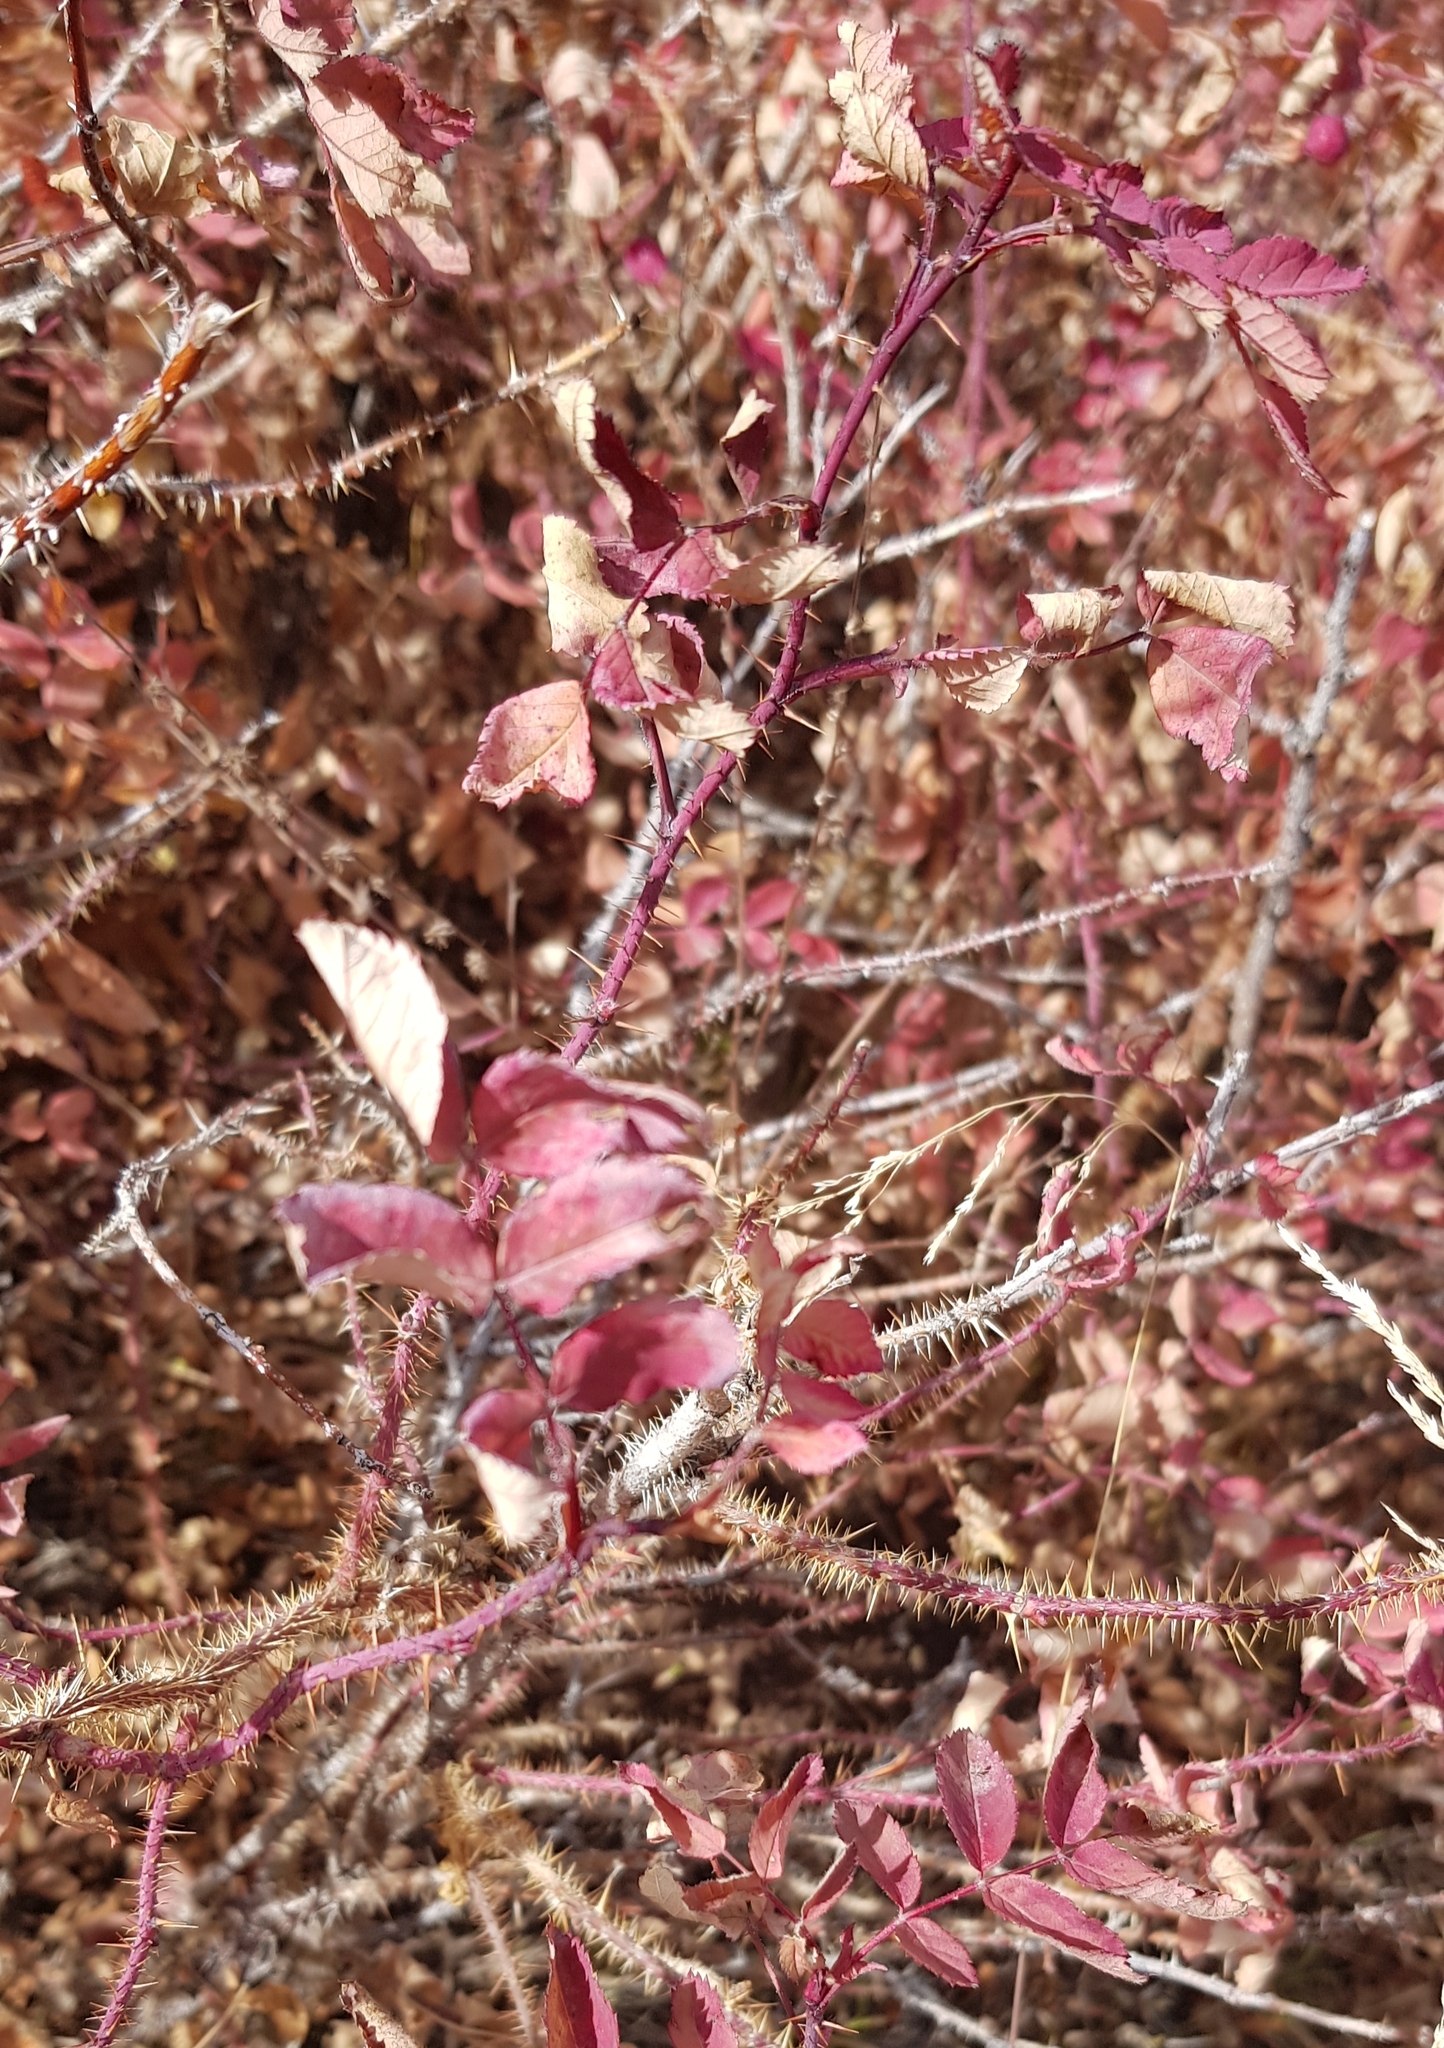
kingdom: Plantae
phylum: Tracheophyta
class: Magnoliopsida
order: Rosales
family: Rosaceae
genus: Rosa
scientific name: Rosa acicularis
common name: Prickly rose
